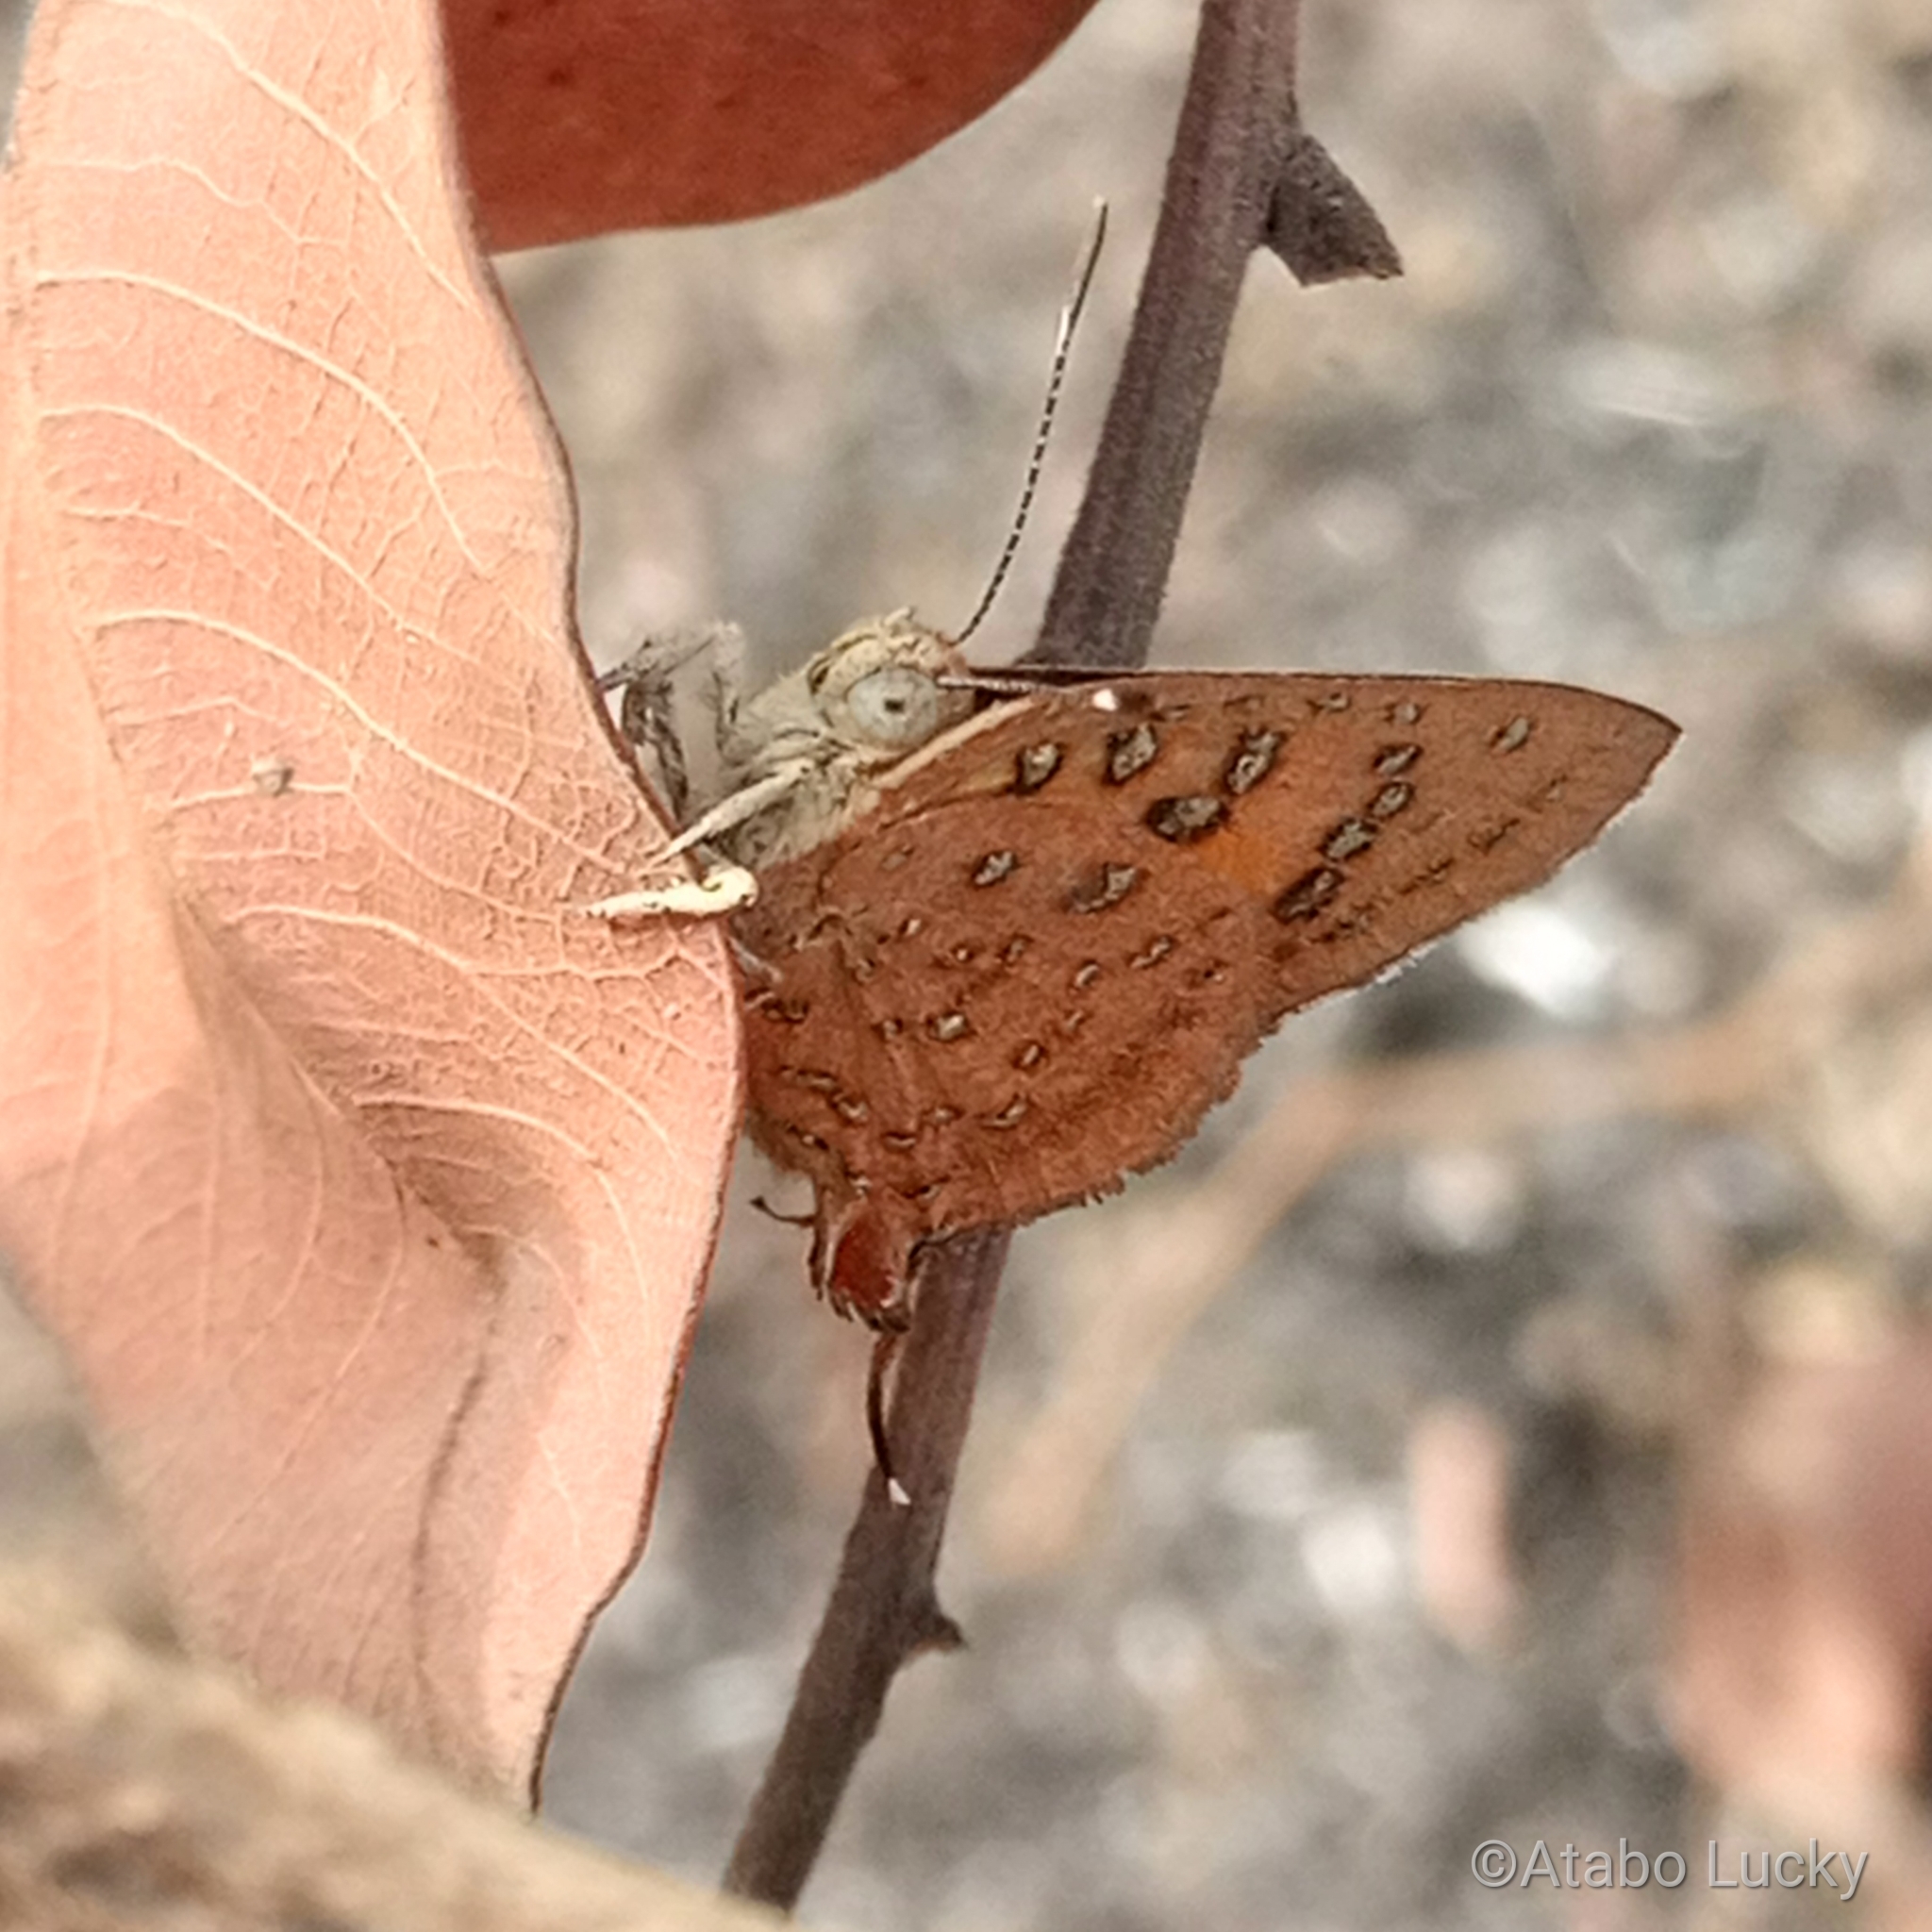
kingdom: Animalia
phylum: Arthropoda
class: Insecta
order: Lepidoptera
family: Lycaenidae
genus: Axiocerses
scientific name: Axiocerses harpax
